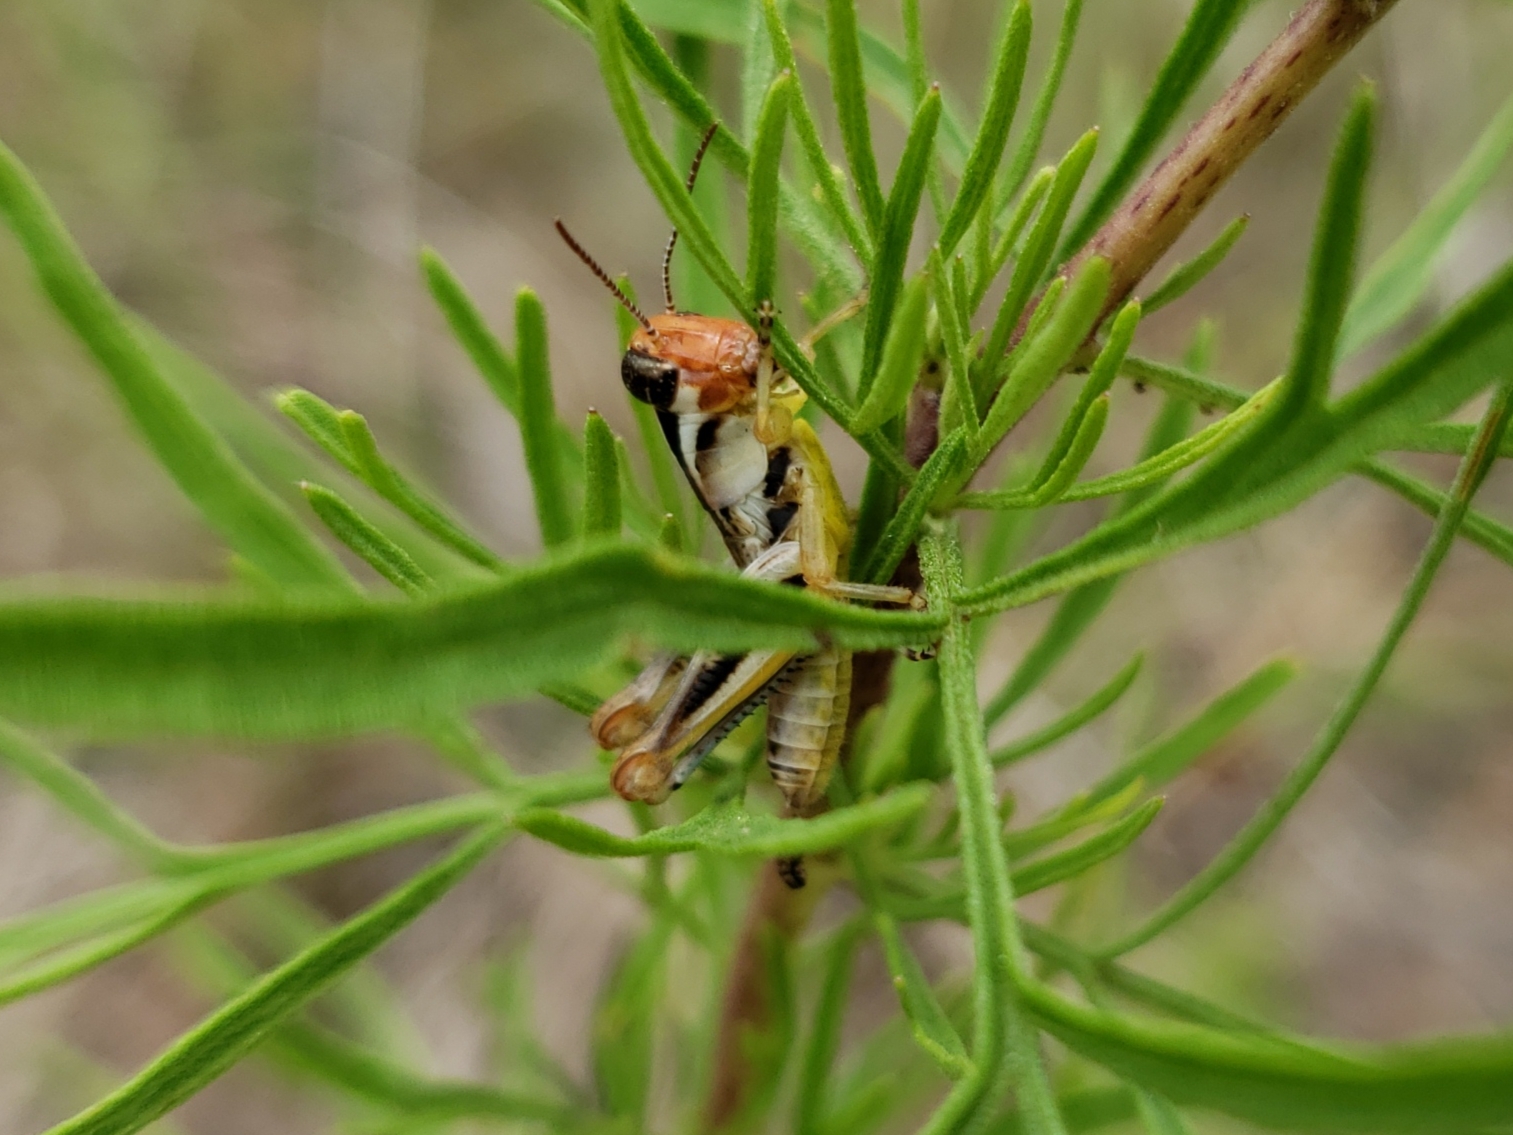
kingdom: Animalia
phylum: Arthropoda
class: Insecta
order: Orthoptera
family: Acrididae
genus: Melanoplus
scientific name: Melanoplus keeleri
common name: Keeler grasshopper
